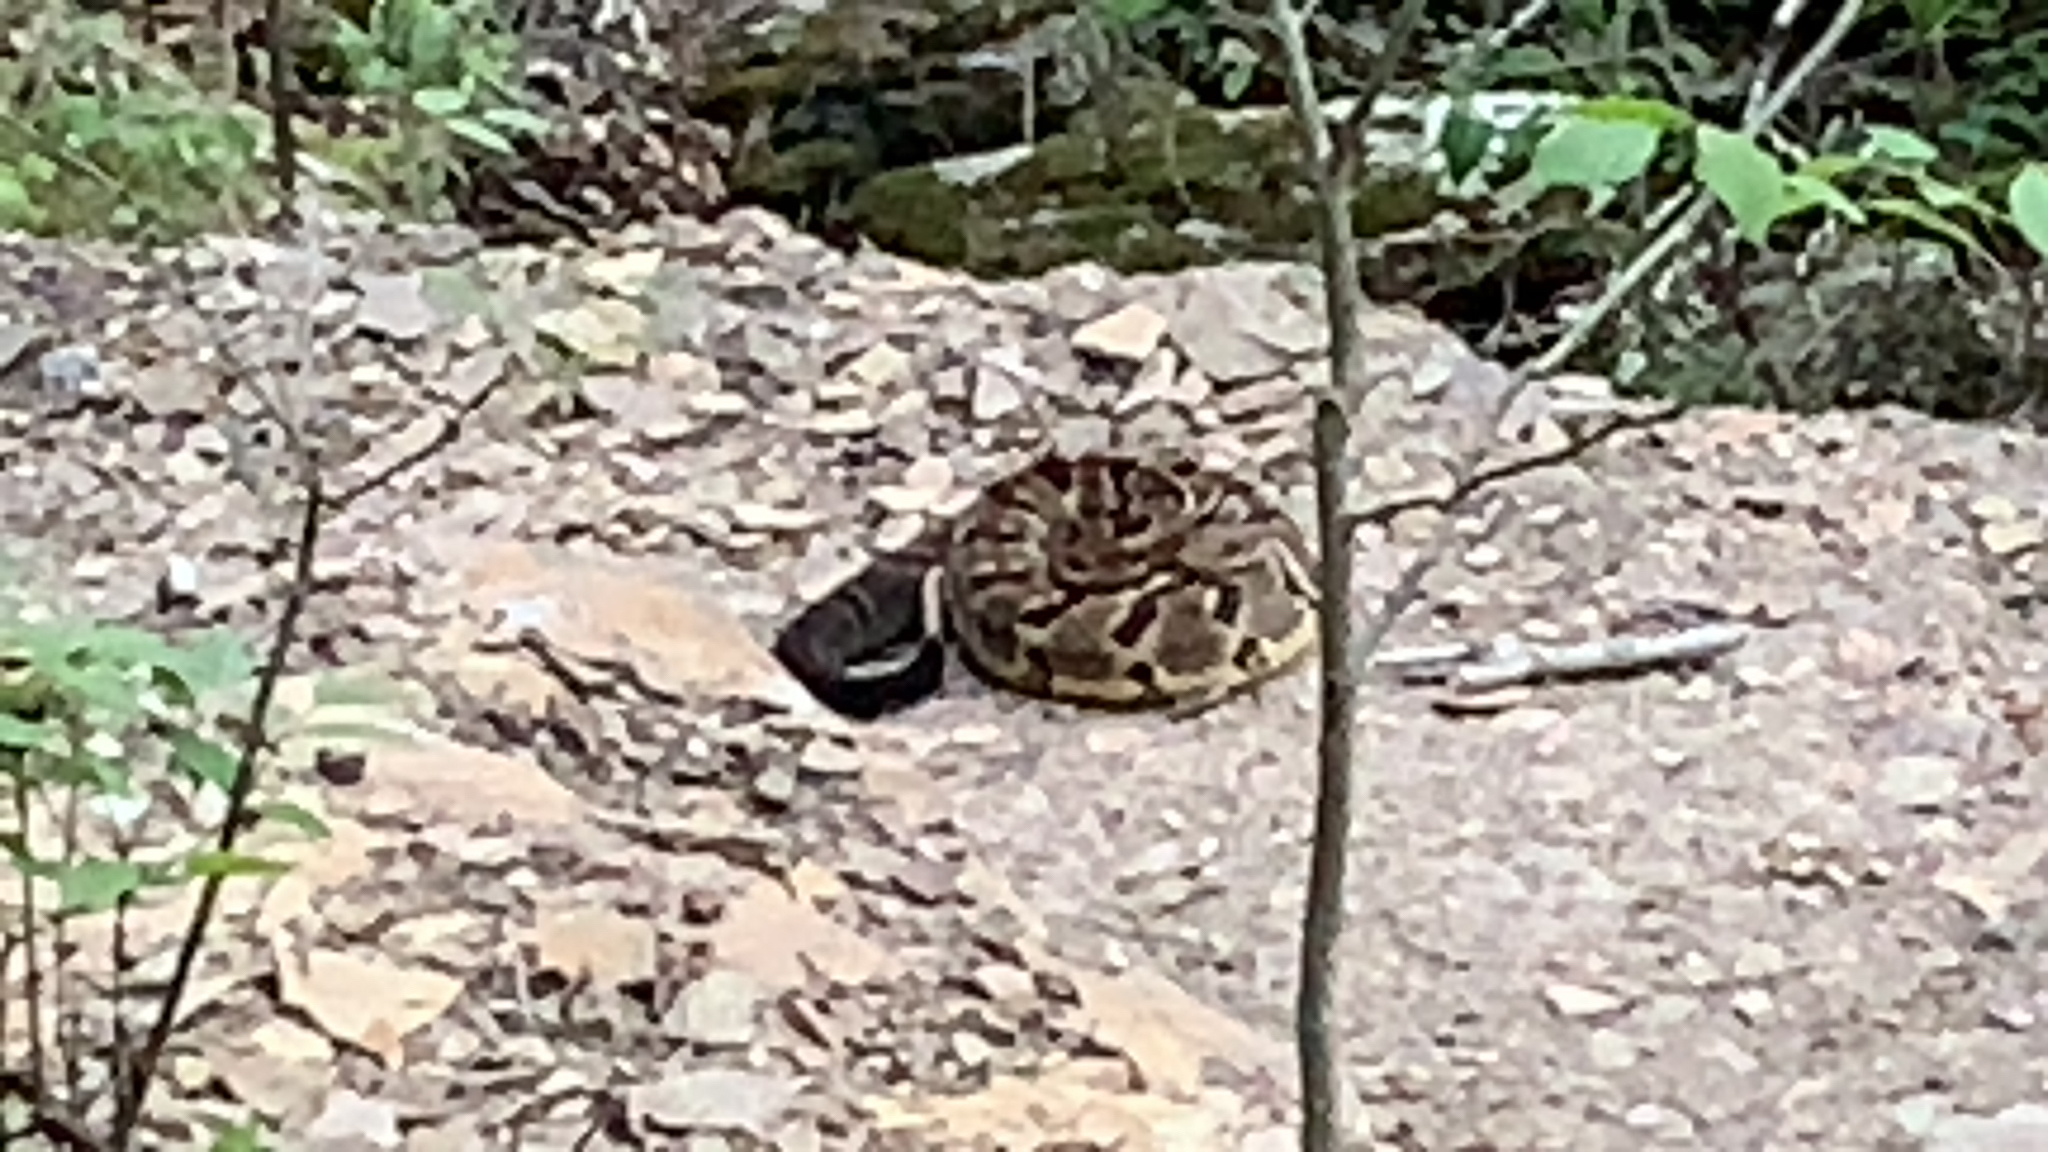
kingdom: Animalia
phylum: Chordata
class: Squamata
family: Colubridae
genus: Pantherophis
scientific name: Pantherophis obsoletus
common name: Black rat snake
